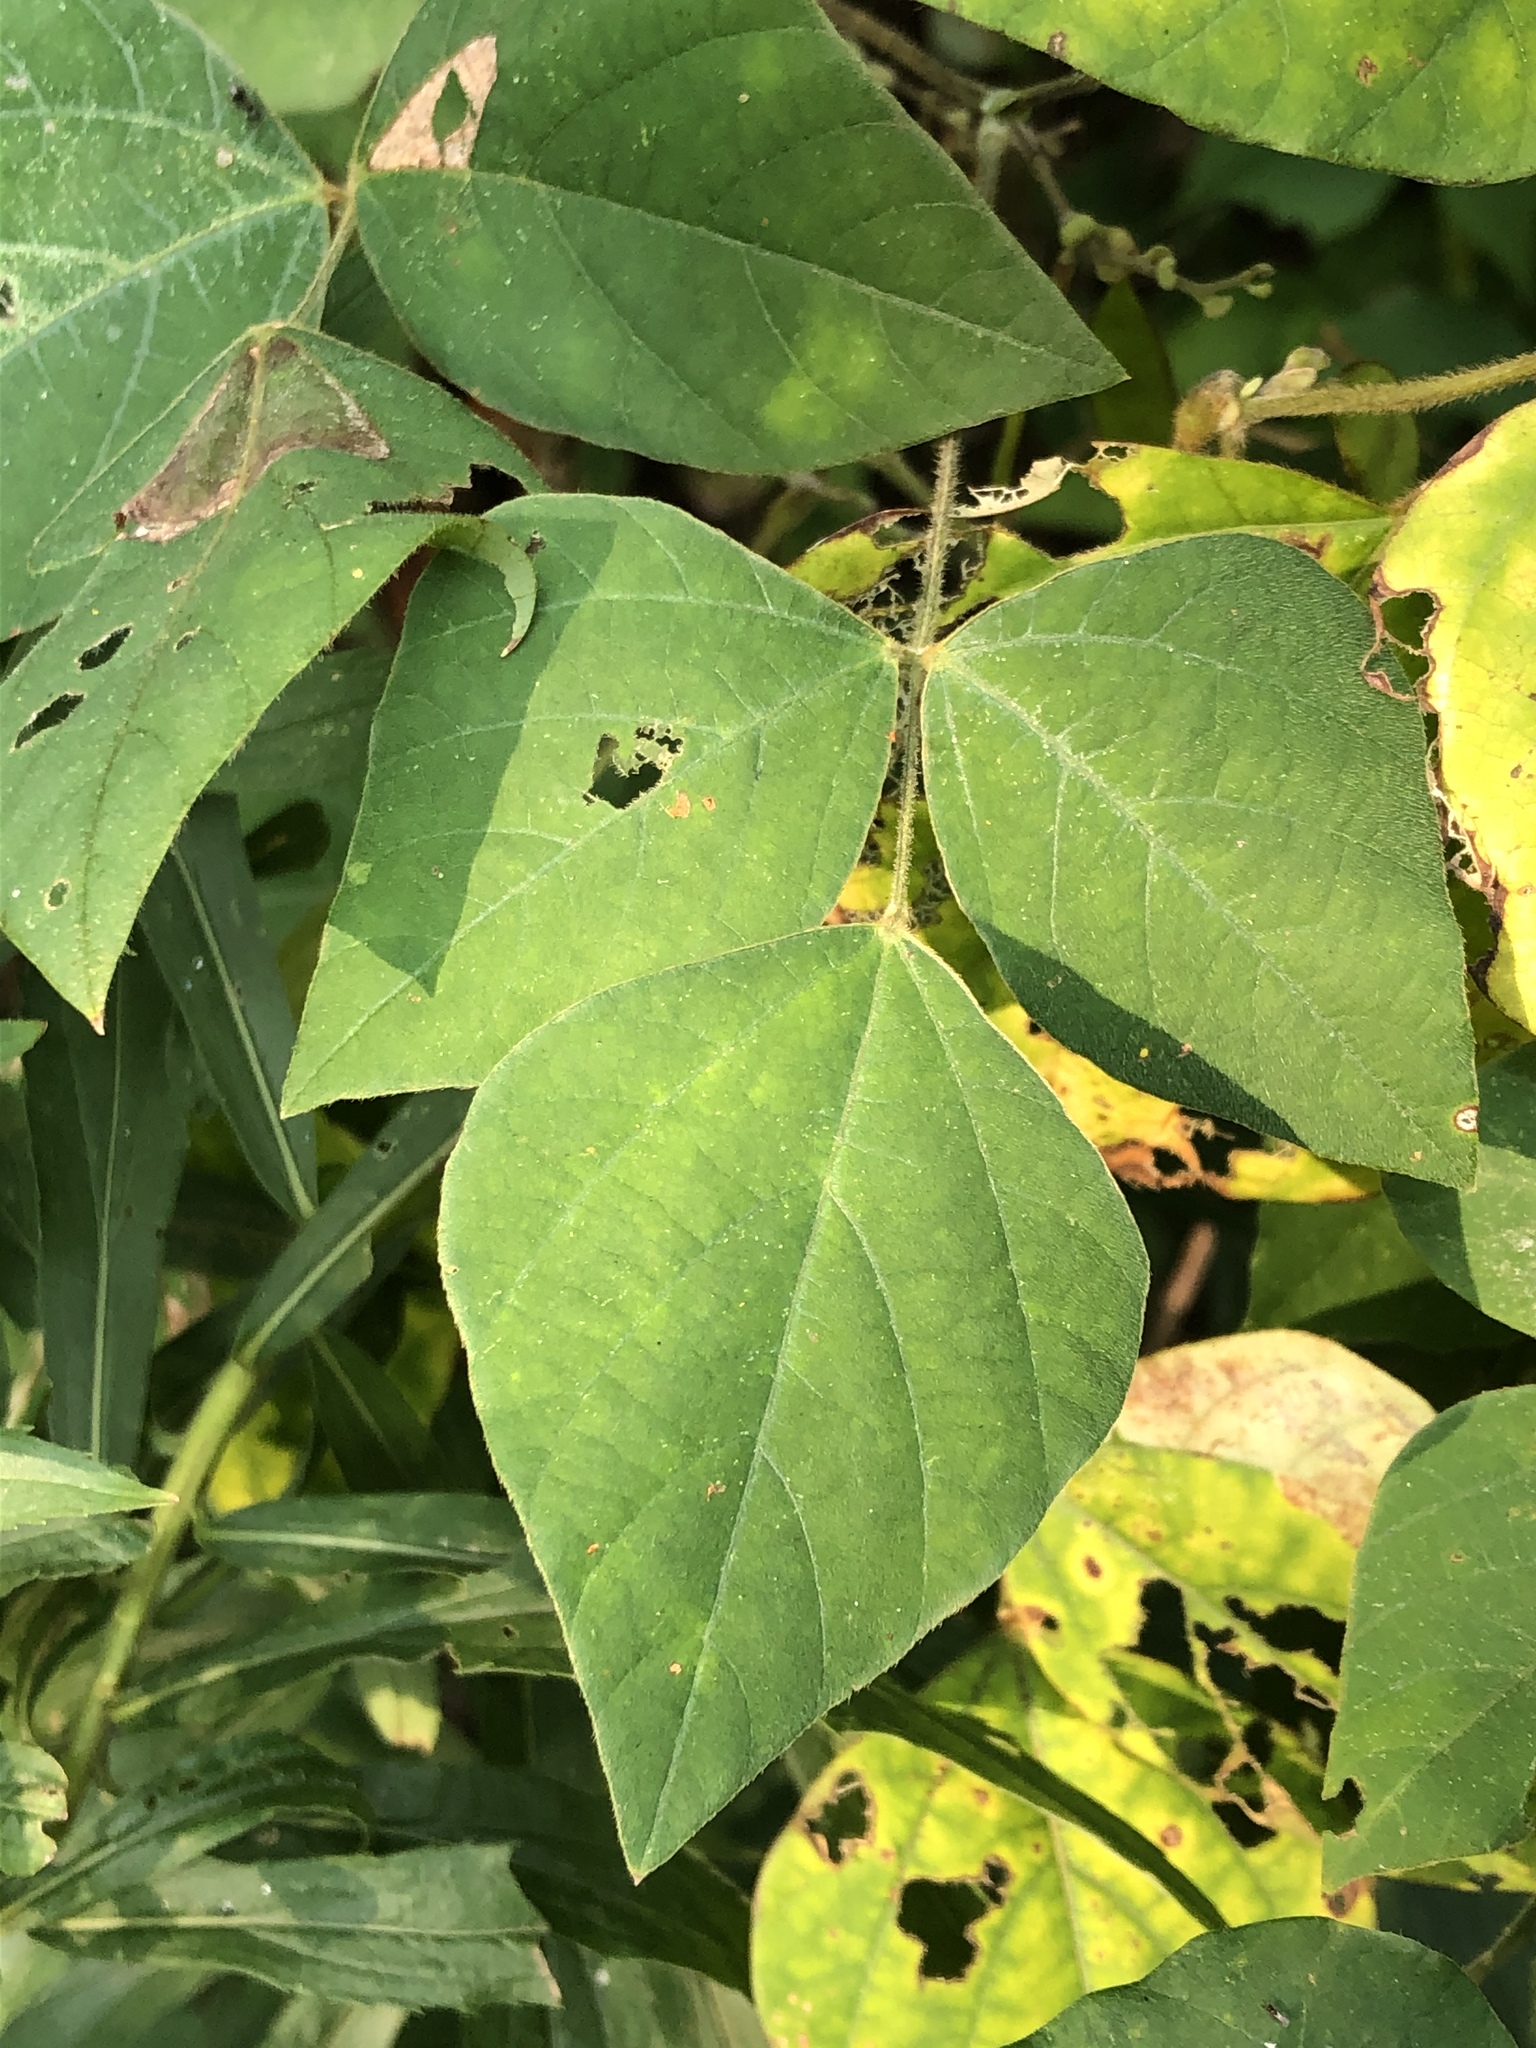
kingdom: Plantae
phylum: Tracheophyta
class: Magnoliopsida
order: Fabales
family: Fabaceae
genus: Amphicarpaea
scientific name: Amphicarpaea bracteata
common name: American hog peanut
